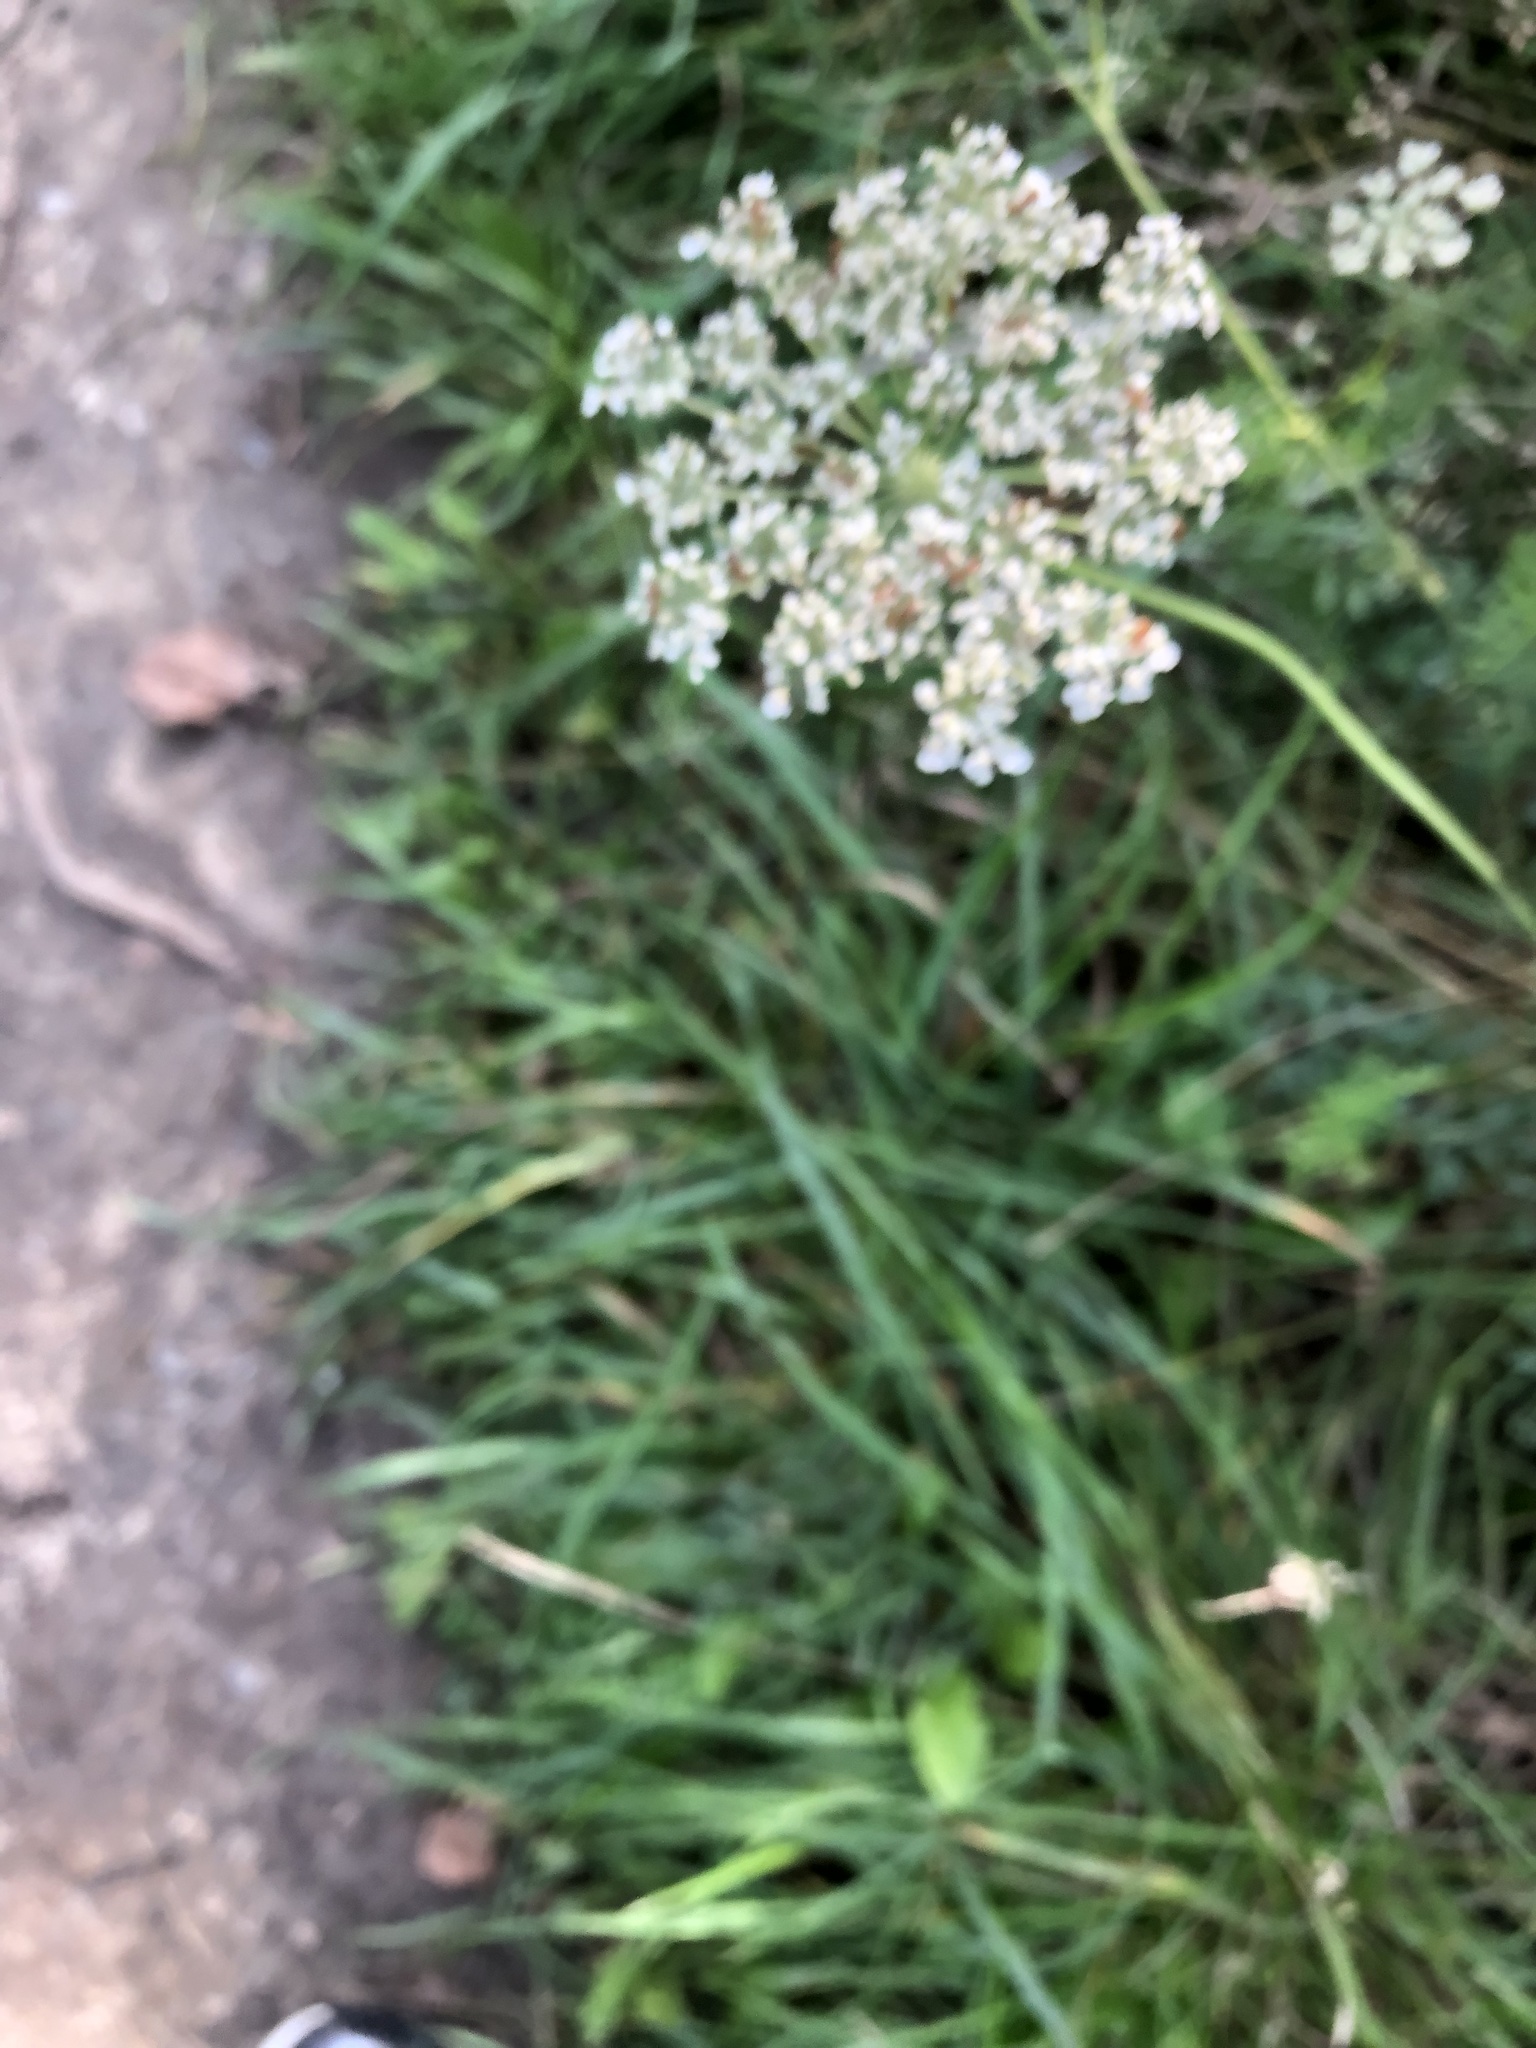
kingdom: Plantae
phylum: Tracheophyta
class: Magnoliopsida
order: Apiales
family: Apiaceae
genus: Daucus
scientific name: Daucus carota
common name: Wild carrot
